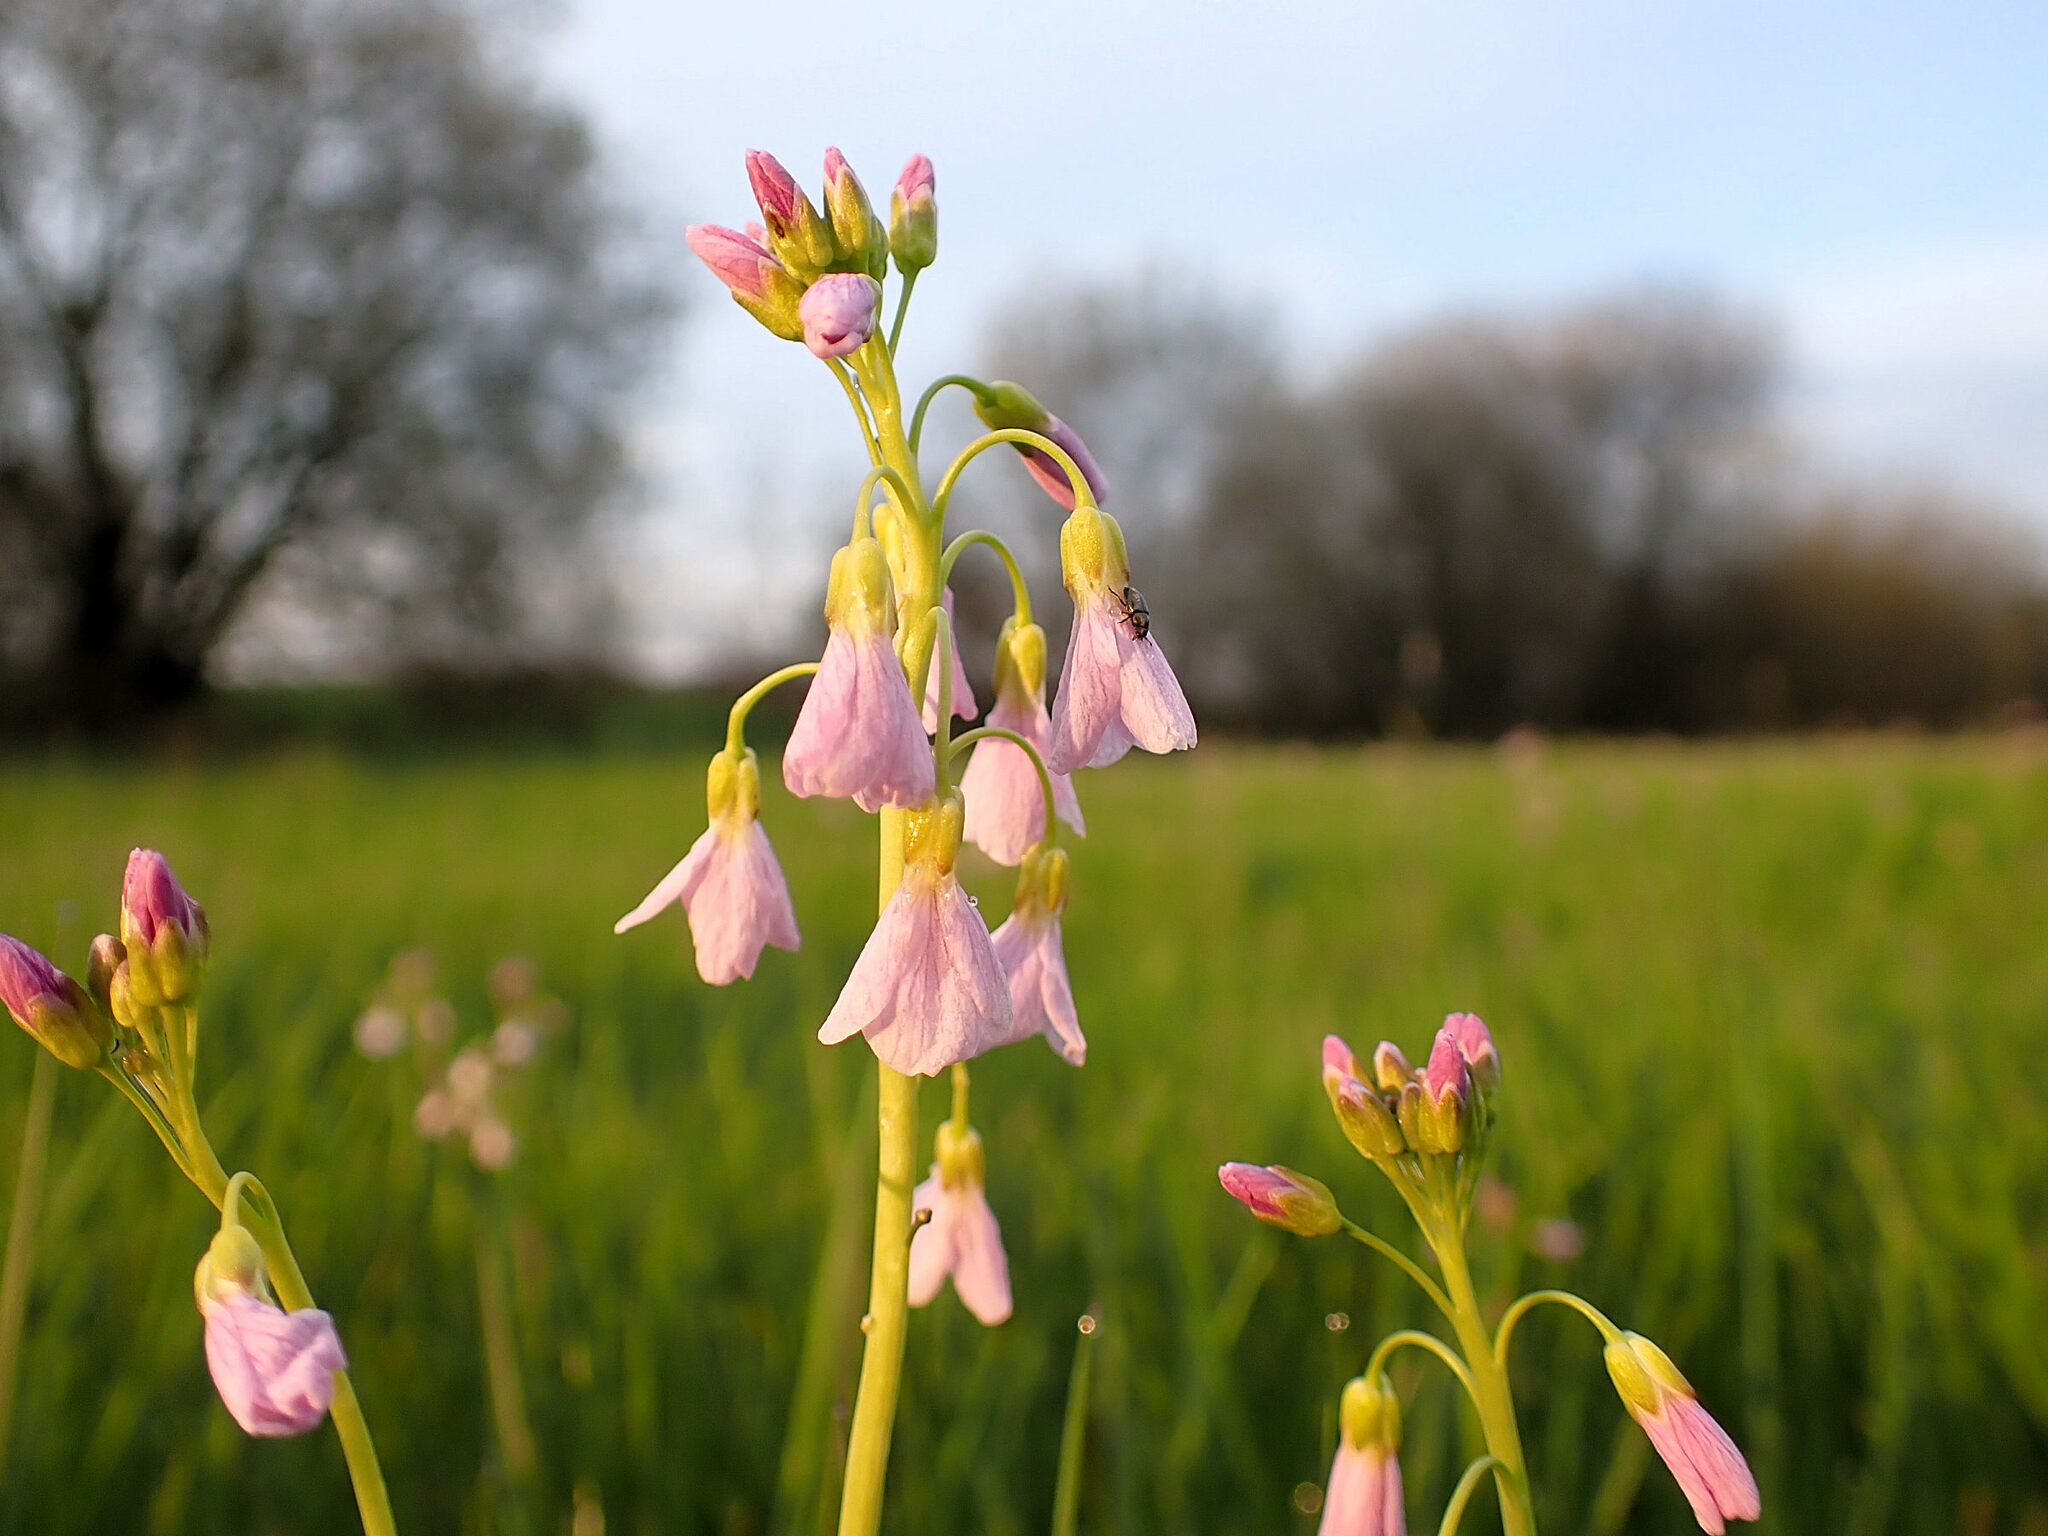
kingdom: Plantae
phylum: Tracheophyta
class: Magnoliopsida
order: Brassicales
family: Brassicaceae
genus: Cardamine
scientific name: Cardamine pratensis
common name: Cuckoo flower
